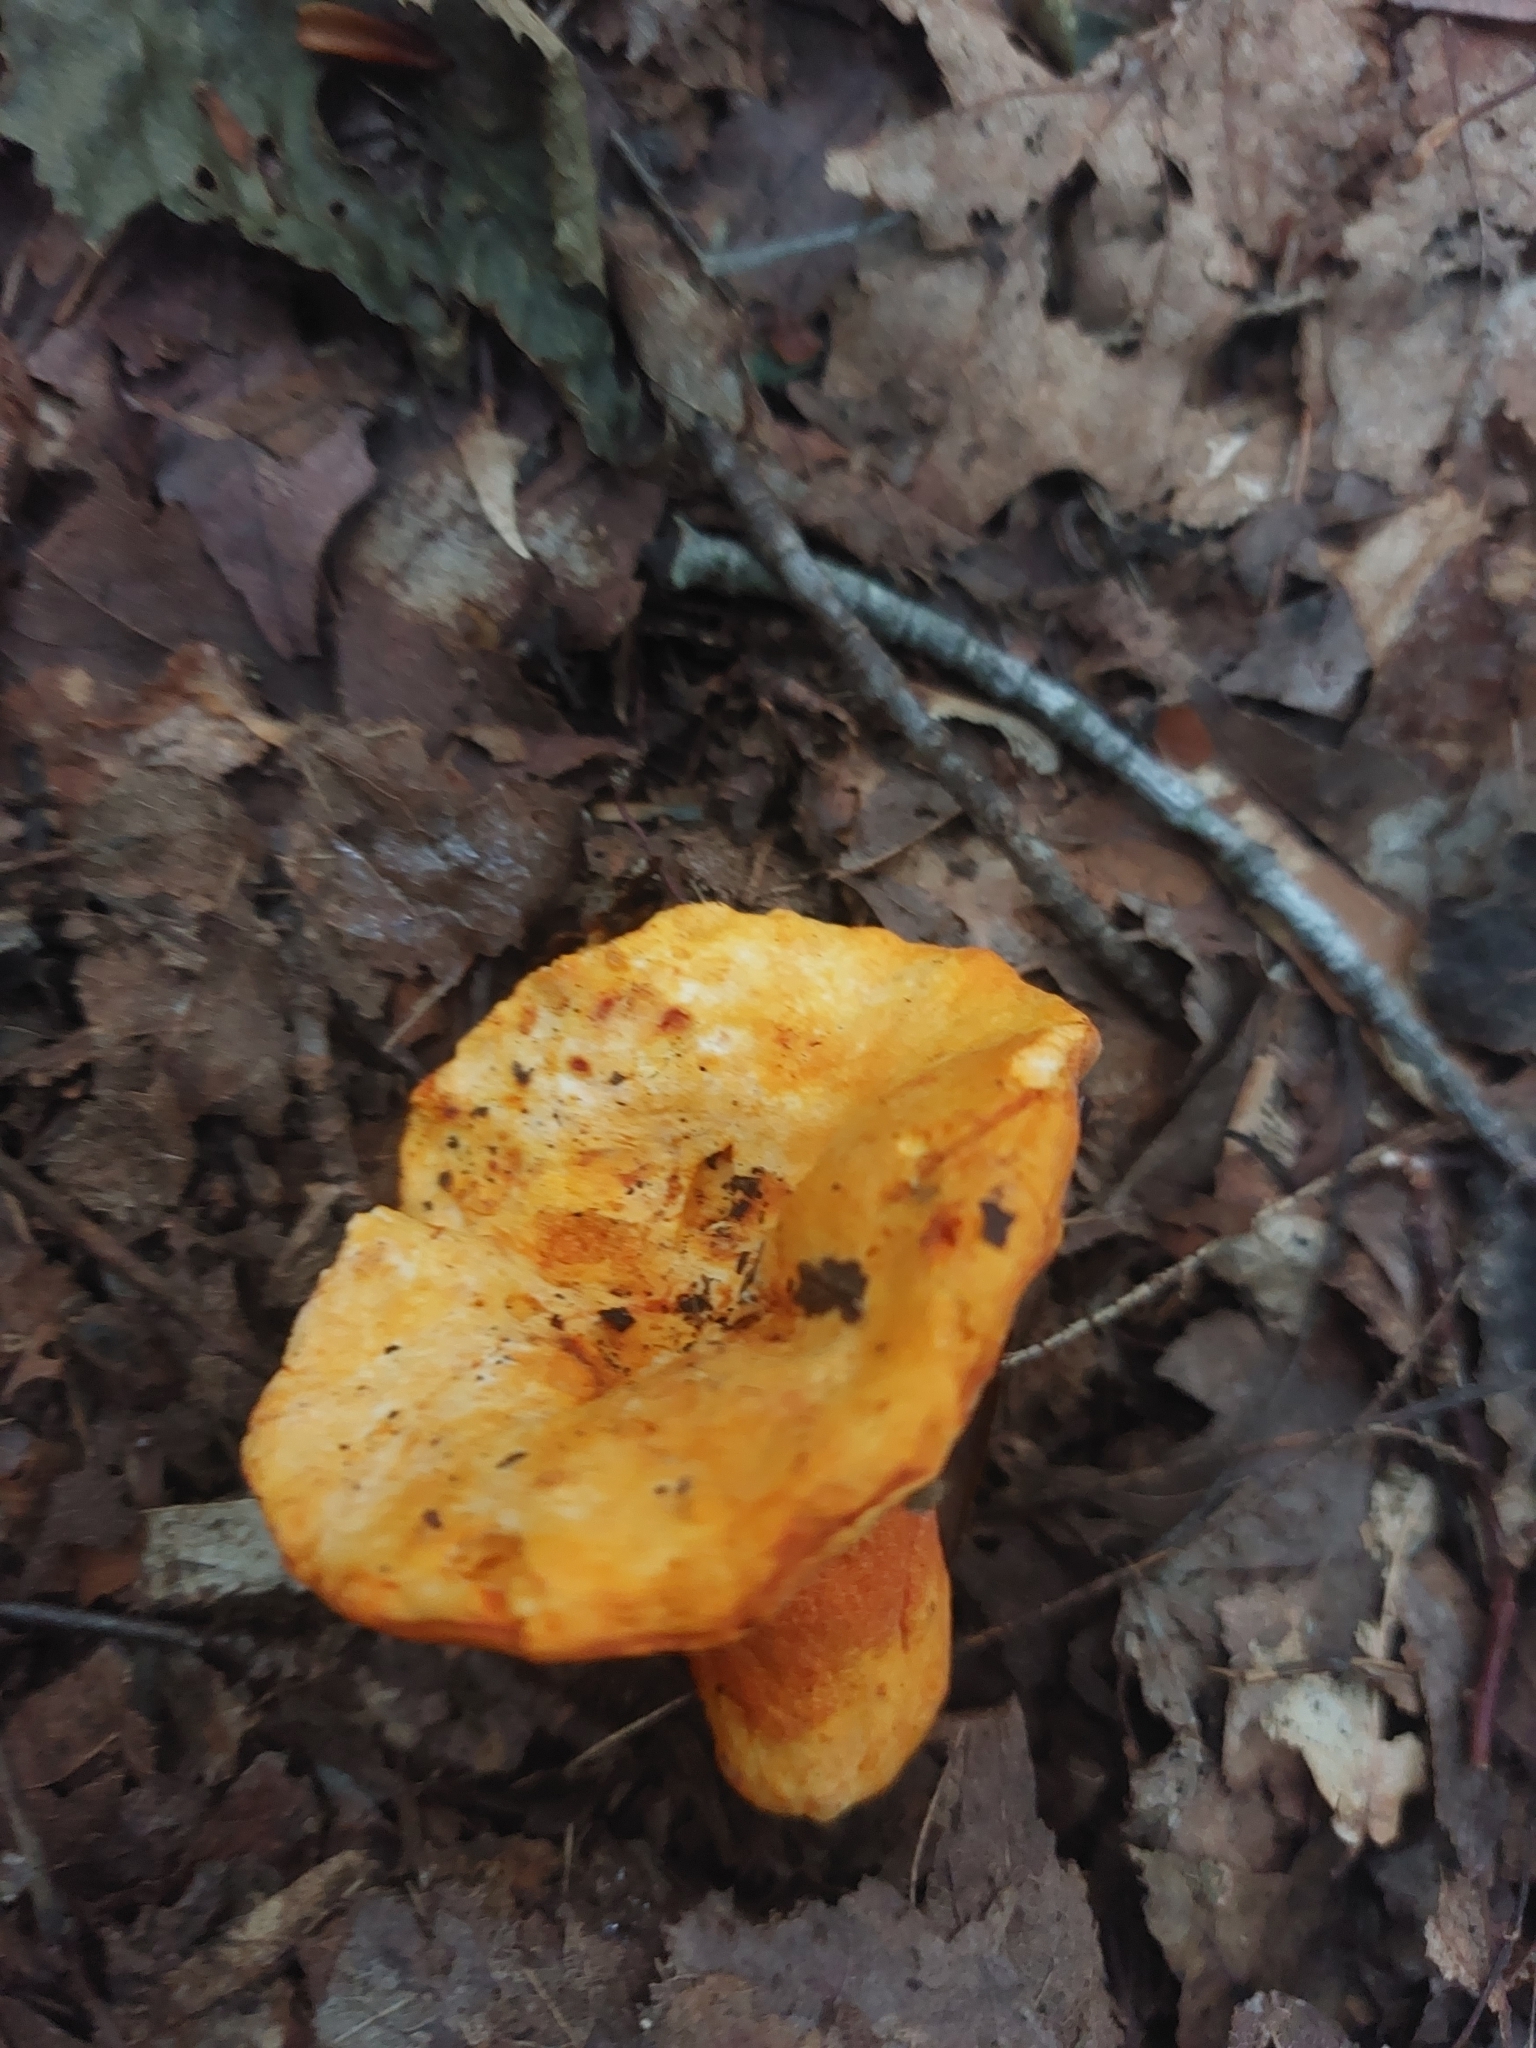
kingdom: Fungi
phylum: Ascomycota
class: Sordariomycetes
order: Hypocreales
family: Hypocreaceae
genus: Hypomyces
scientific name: Hypomyces lactifluorum
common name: Lobster mushroom
